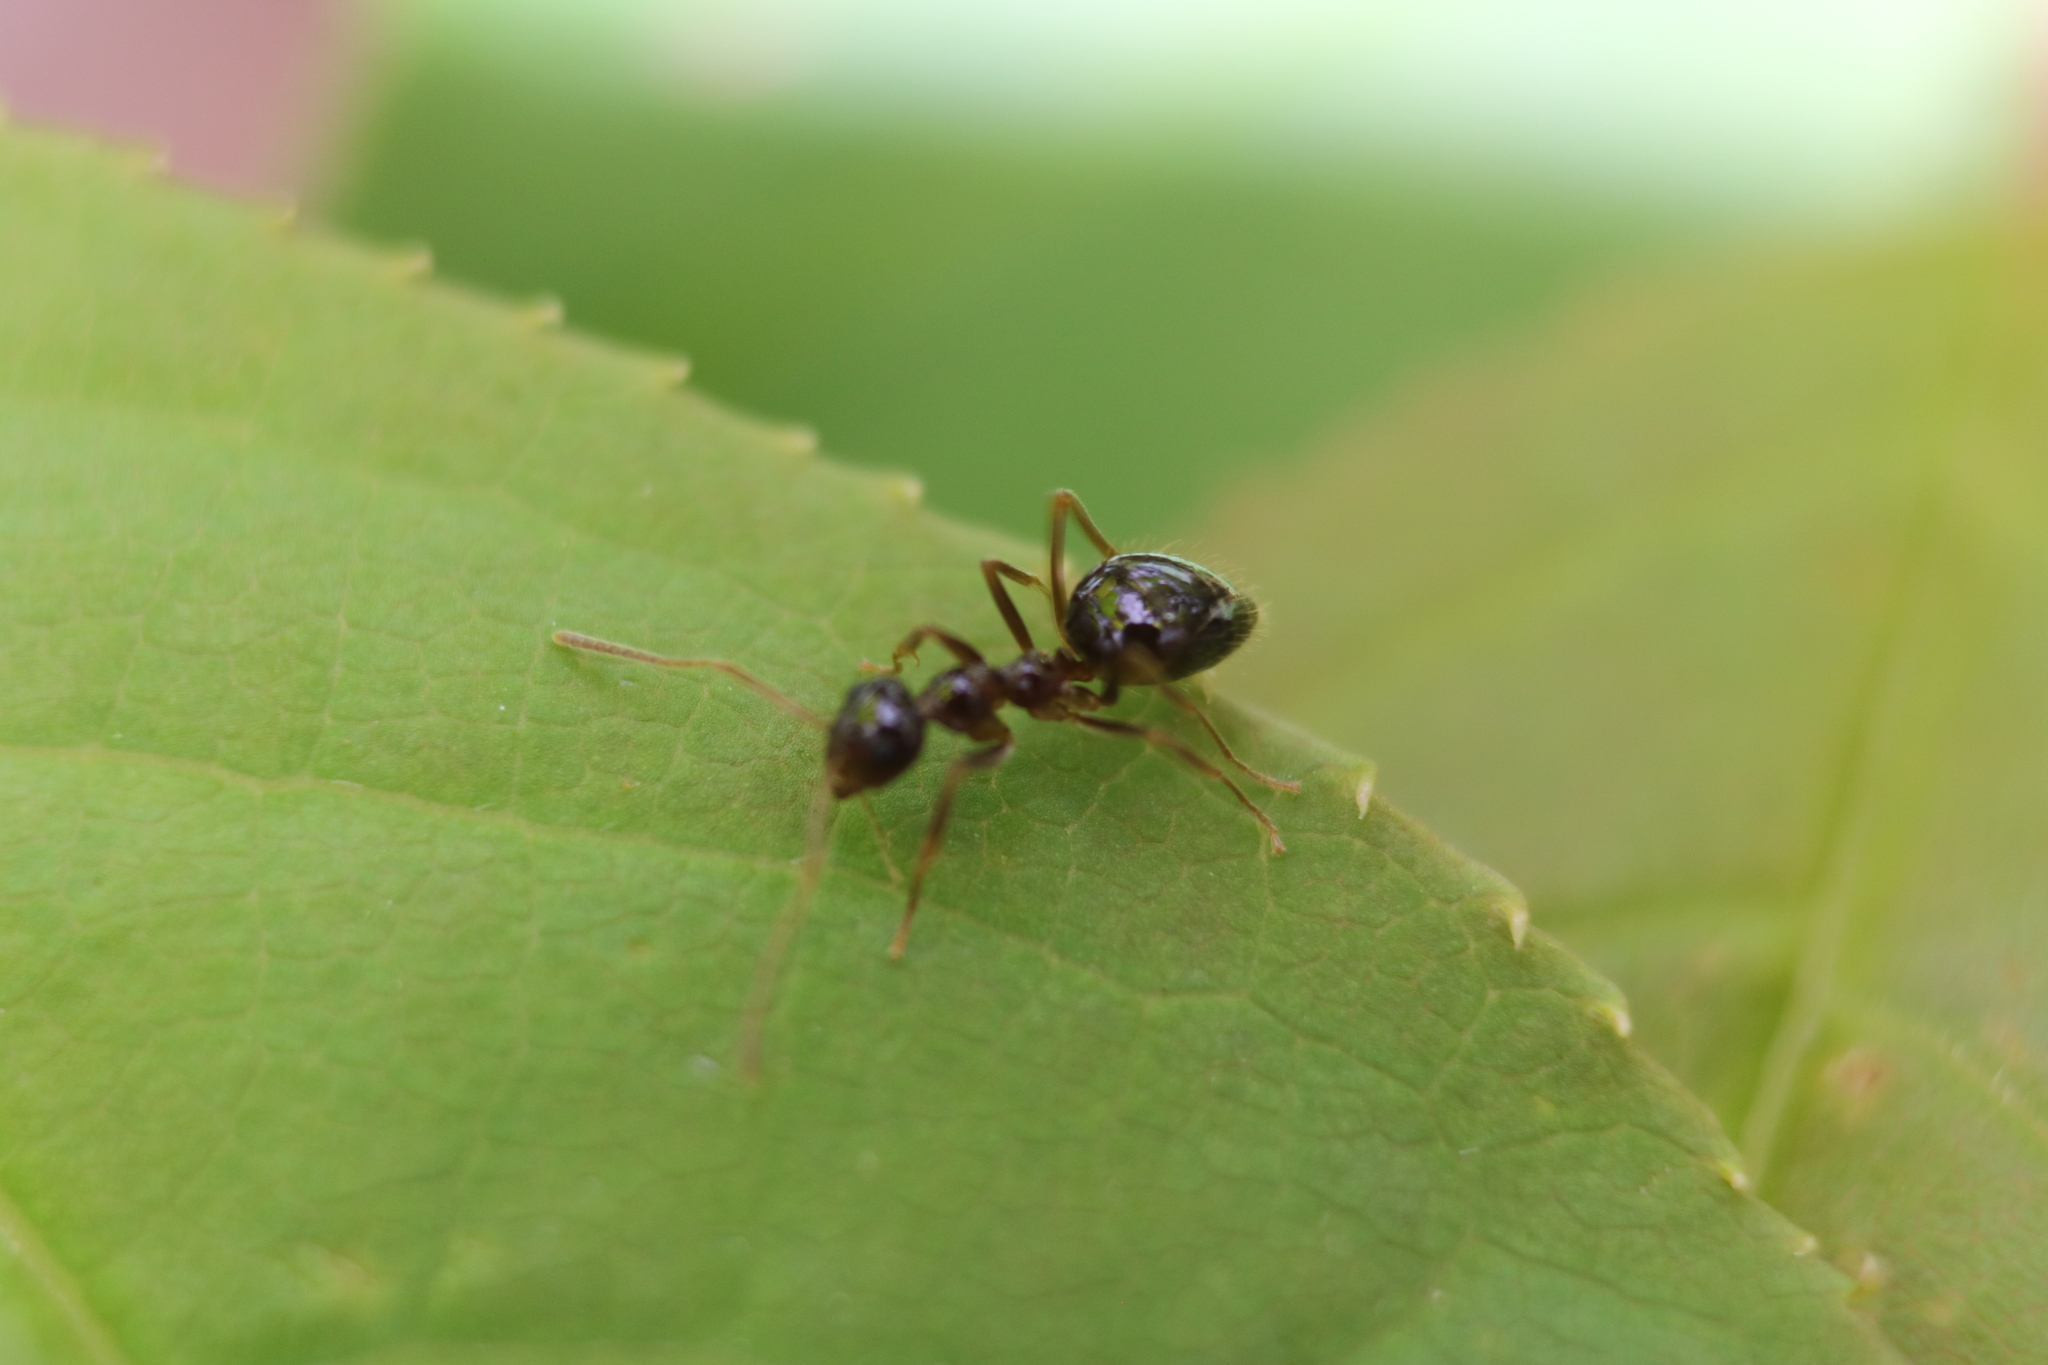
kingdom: Animalia
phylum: Arthropoda
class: Insecta
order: Hymenoptera
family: Formicidae
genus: Prenolepis
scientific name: Prenolepis imparis
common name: Small honey ant
